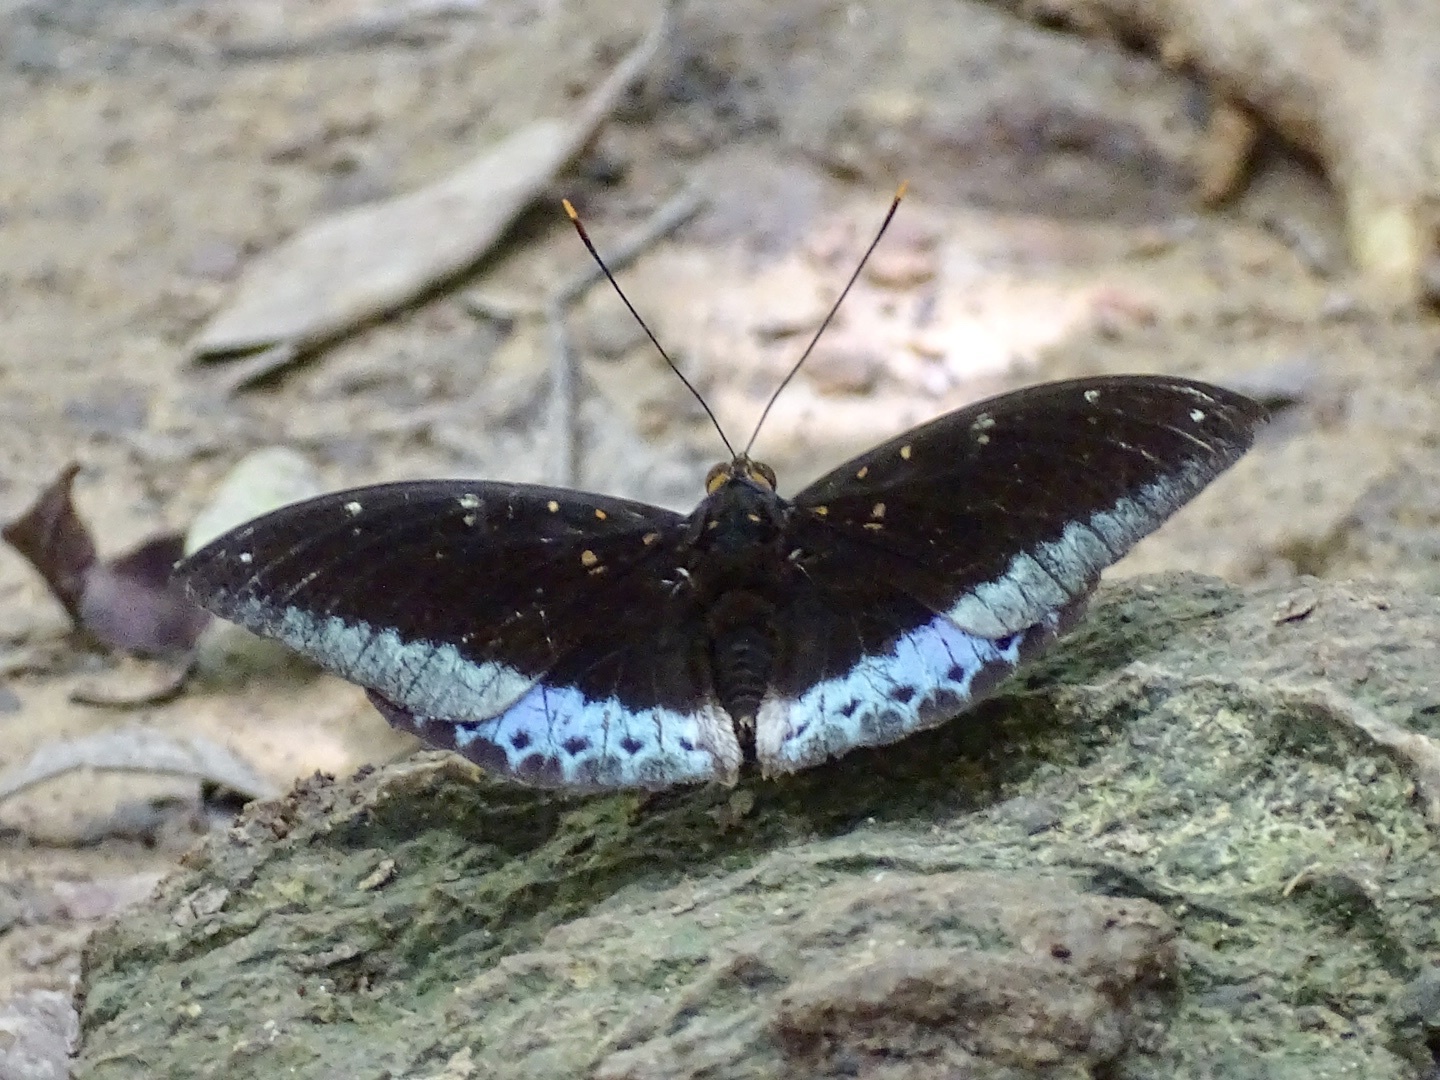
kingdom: Animalia
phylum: Arthropoda
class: Insecta
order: Lepidoptera
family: Nymphalidae
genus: Lexias
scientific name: Lexias pardalis
